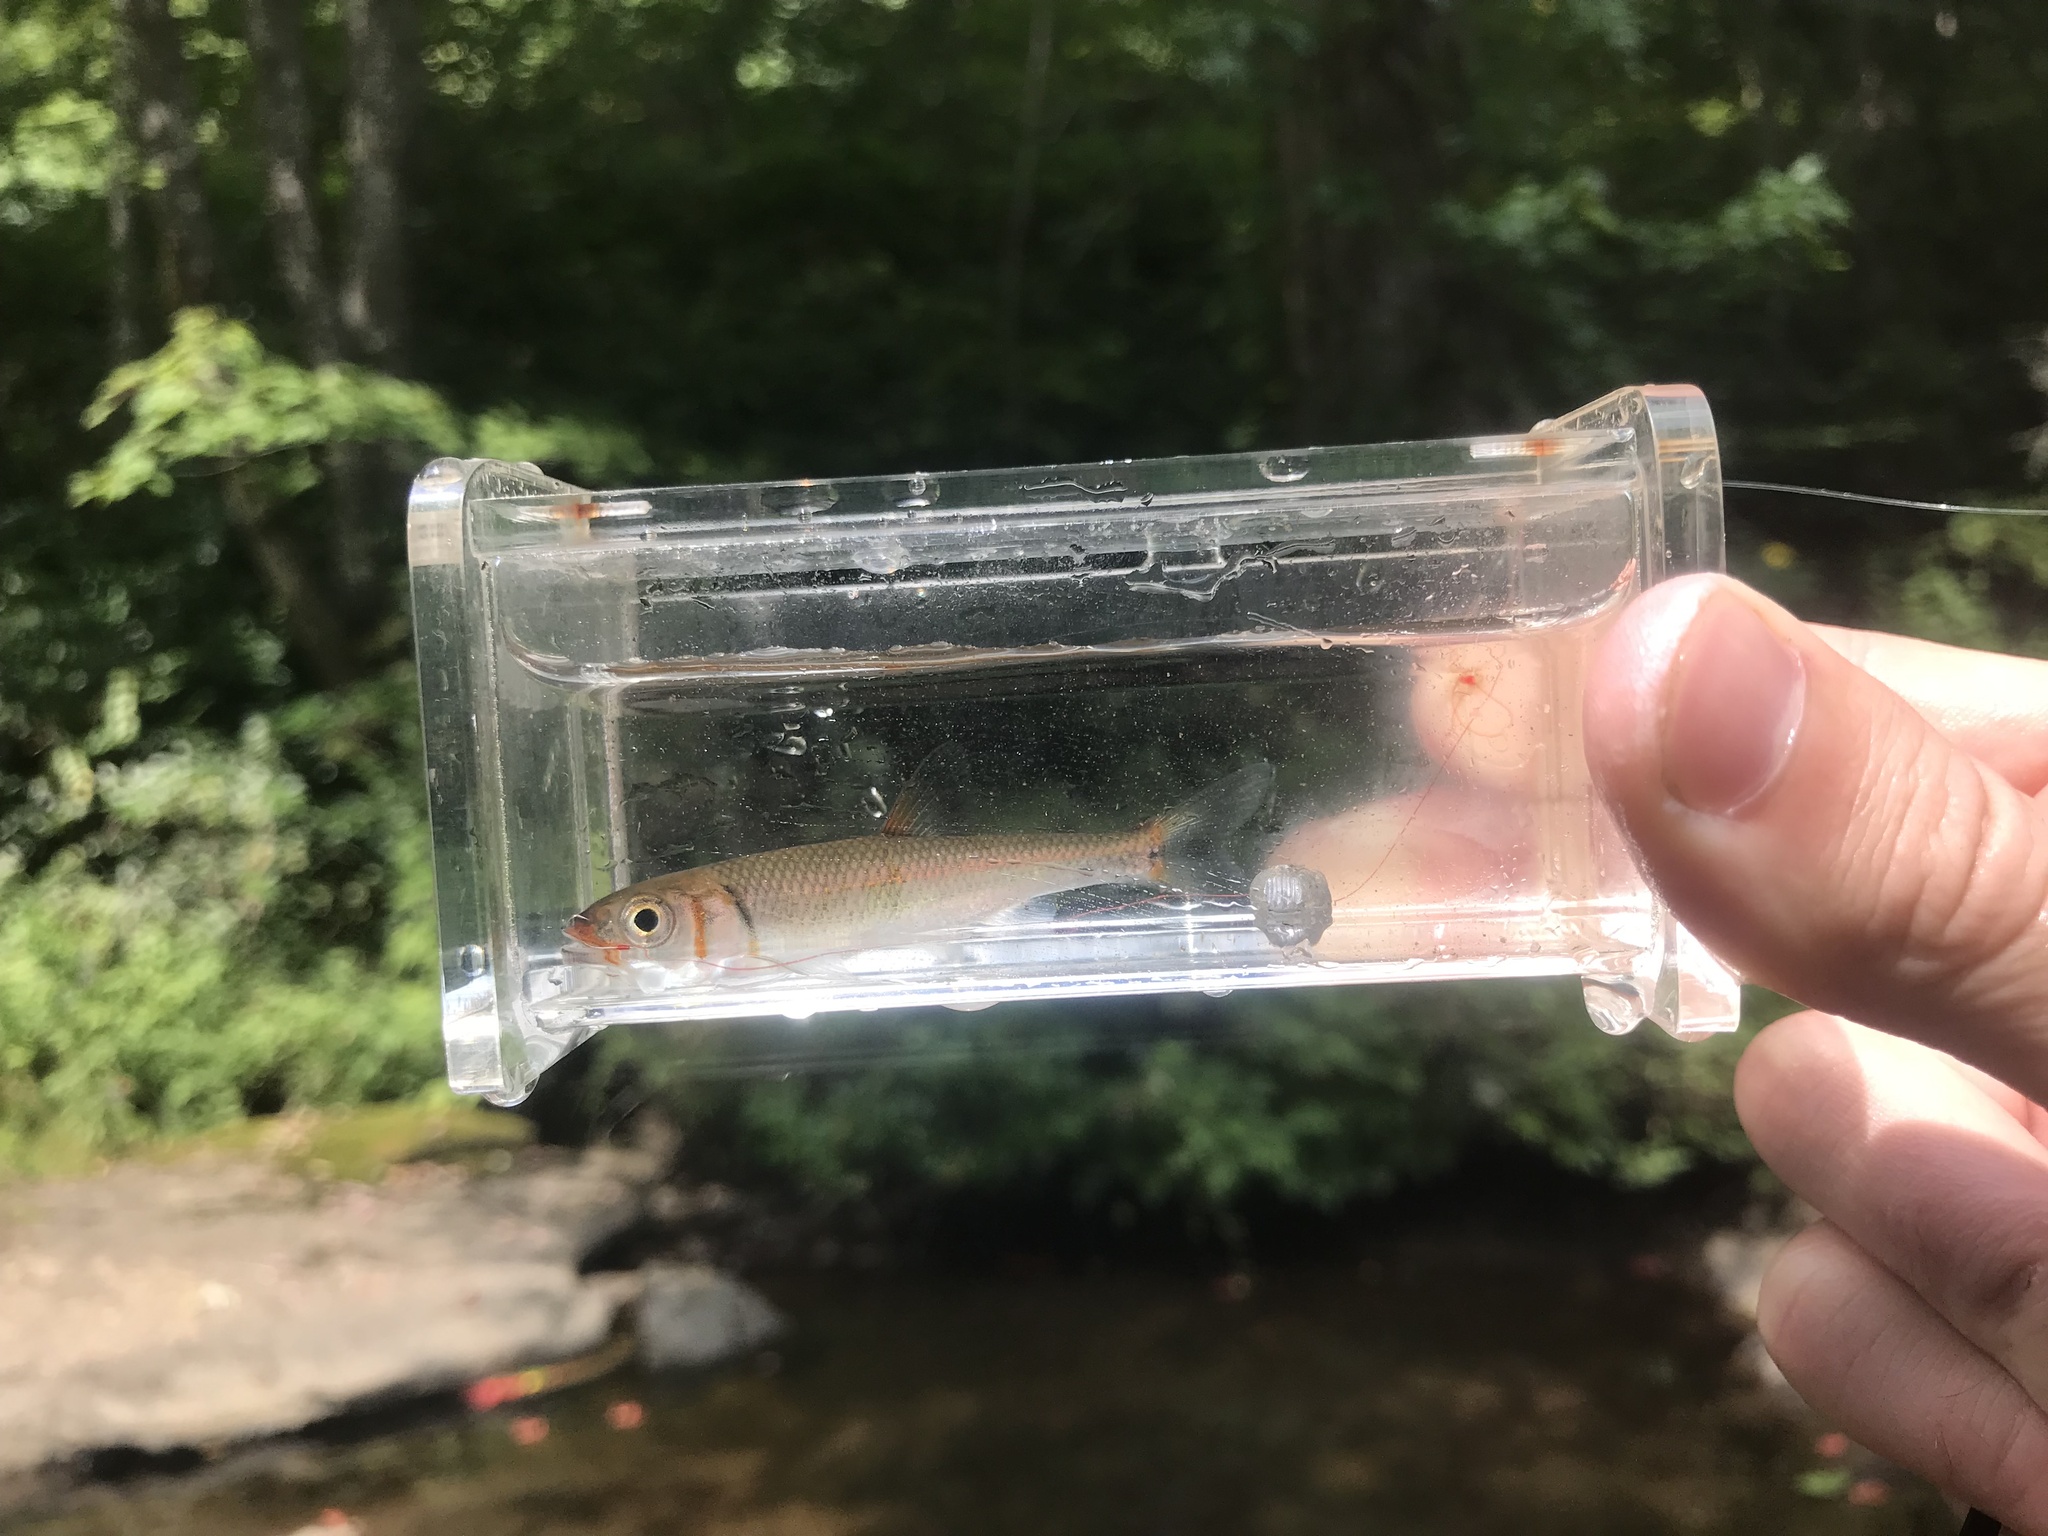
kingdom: Animalia
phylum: Chordata
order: Cypriniformes
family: Cyprinidae
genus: Luxilus
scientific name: Luxilus
